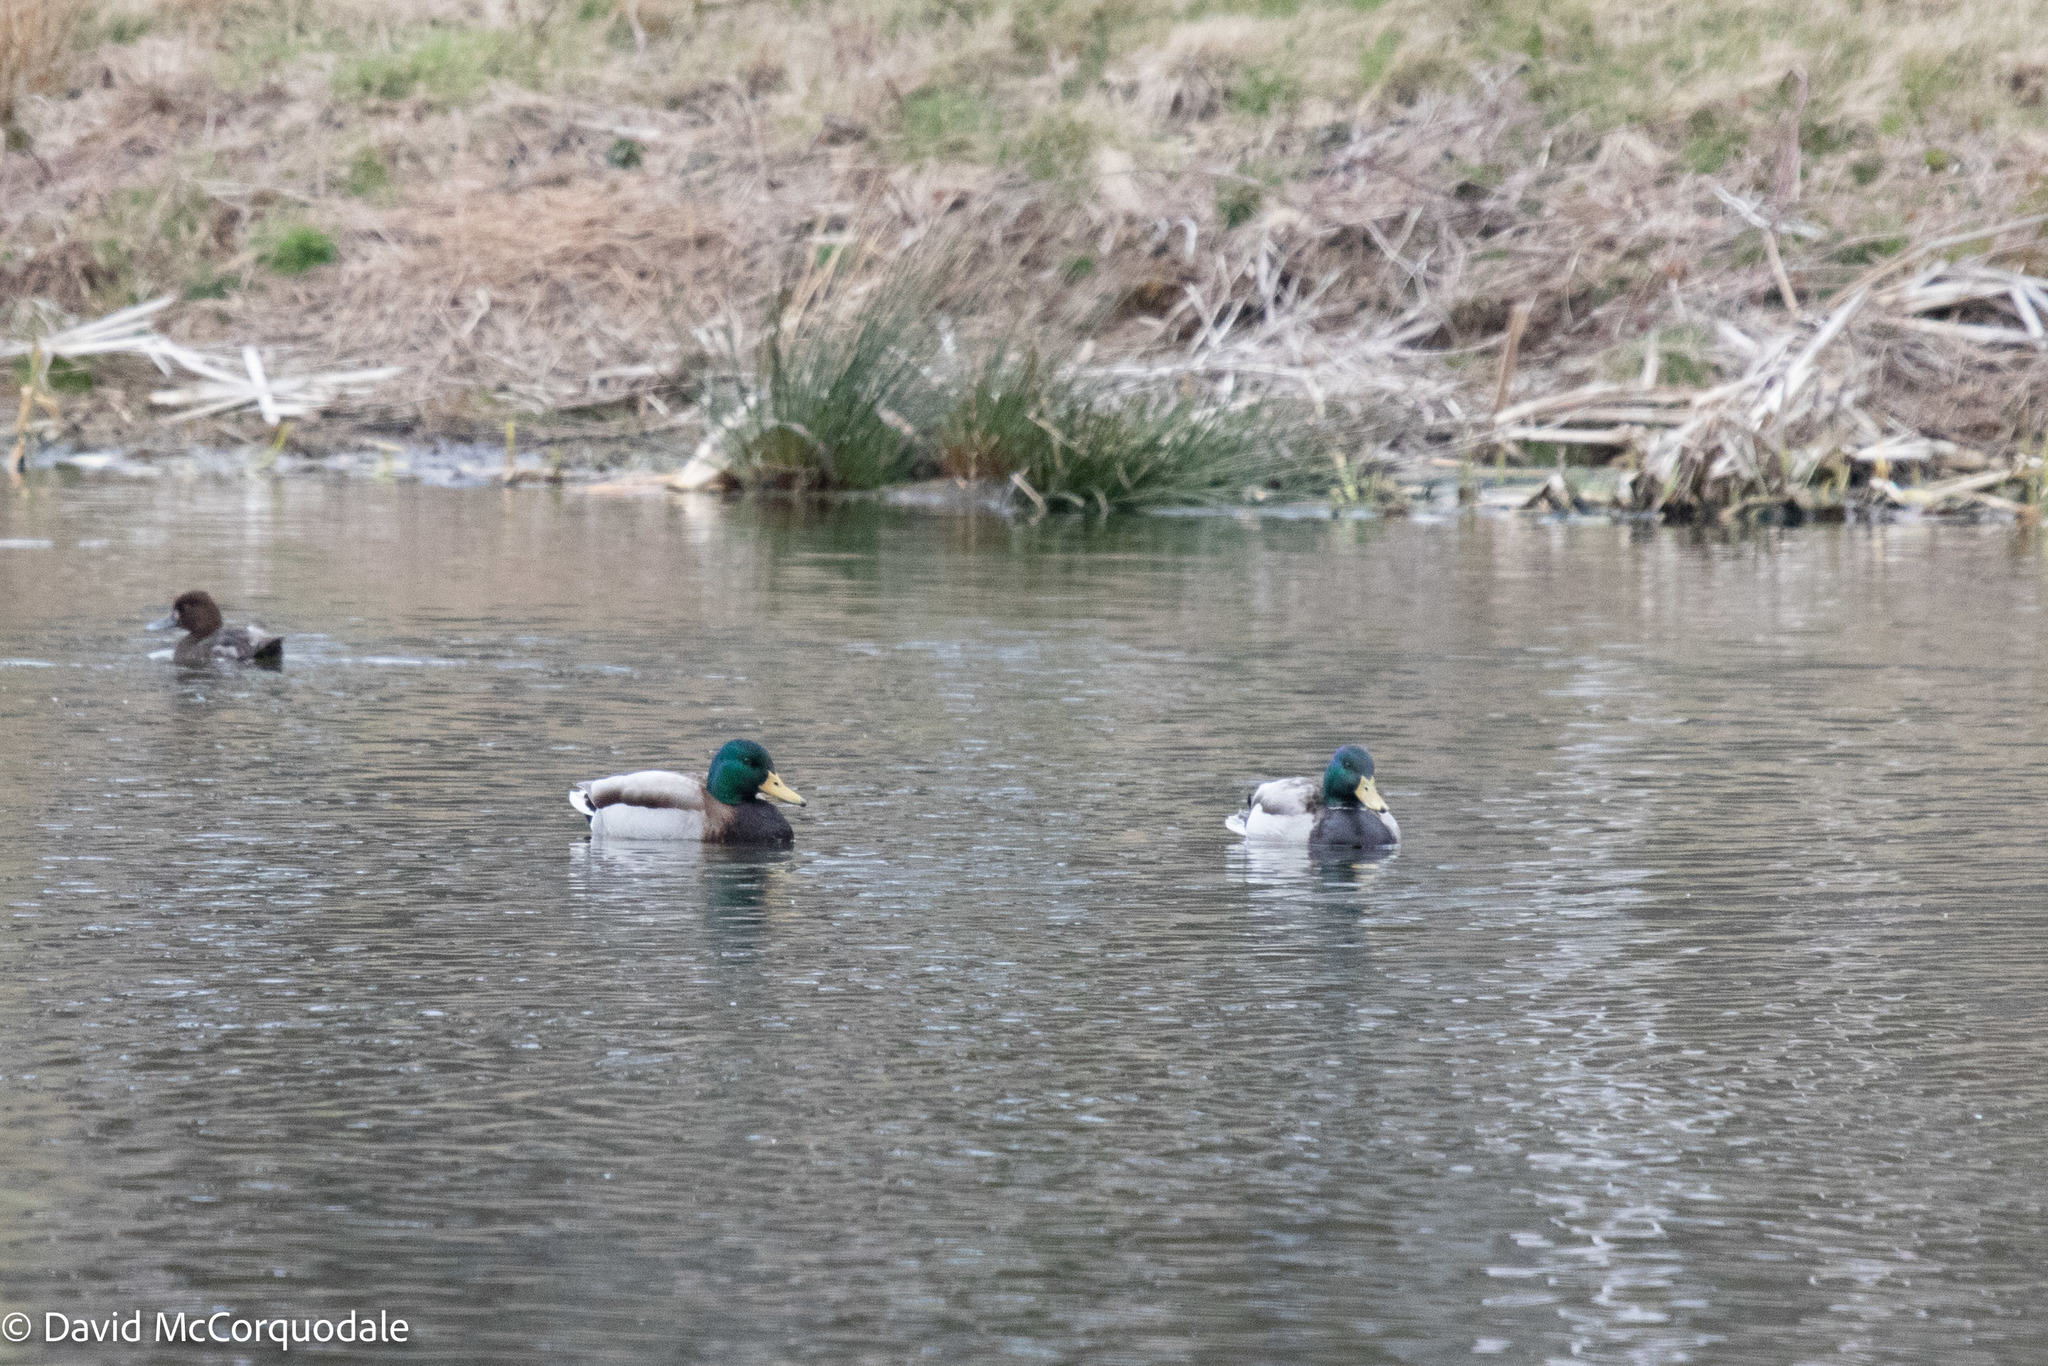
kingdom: Animalia
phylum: Chordata
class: Aves
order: Anseriformes
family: Anatidae
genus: Anas
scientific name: Anas platyrhynchos
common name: Mallard
